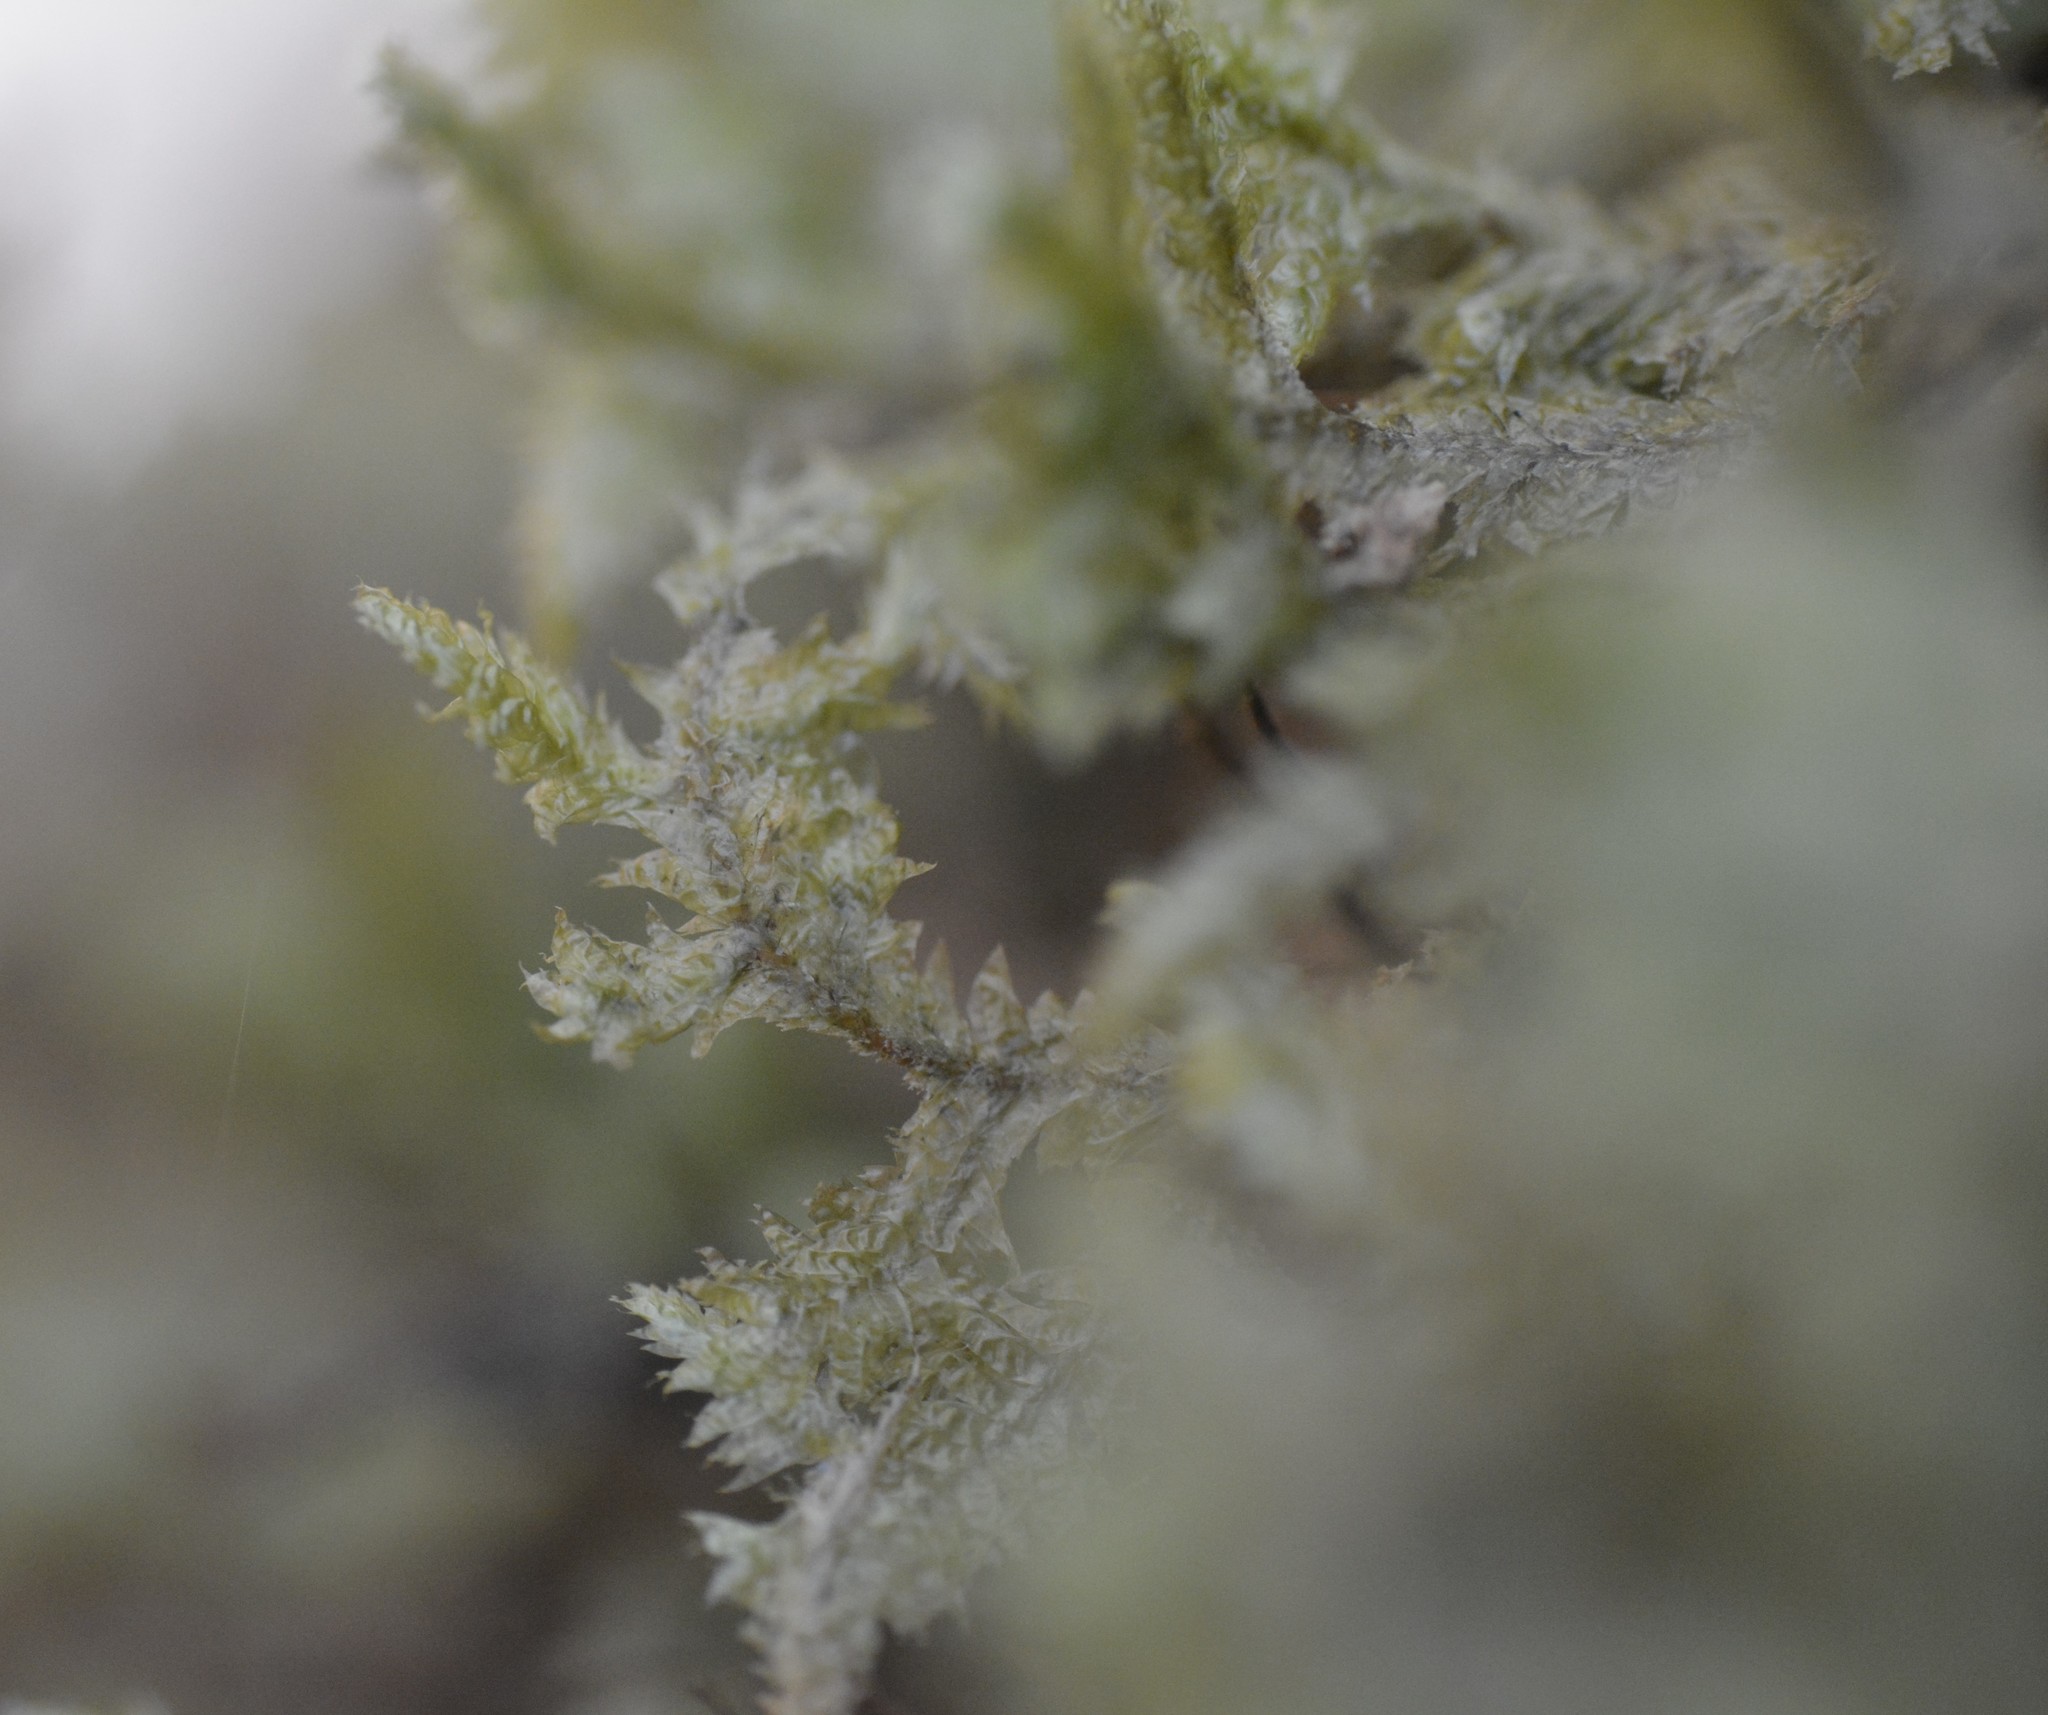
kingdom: Plantae
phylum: Bryophyta
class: Bryopsida
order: Hypnales
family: Neckeraceae
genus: Neckera
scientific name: Neckera pennata
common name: Feathery neckera
